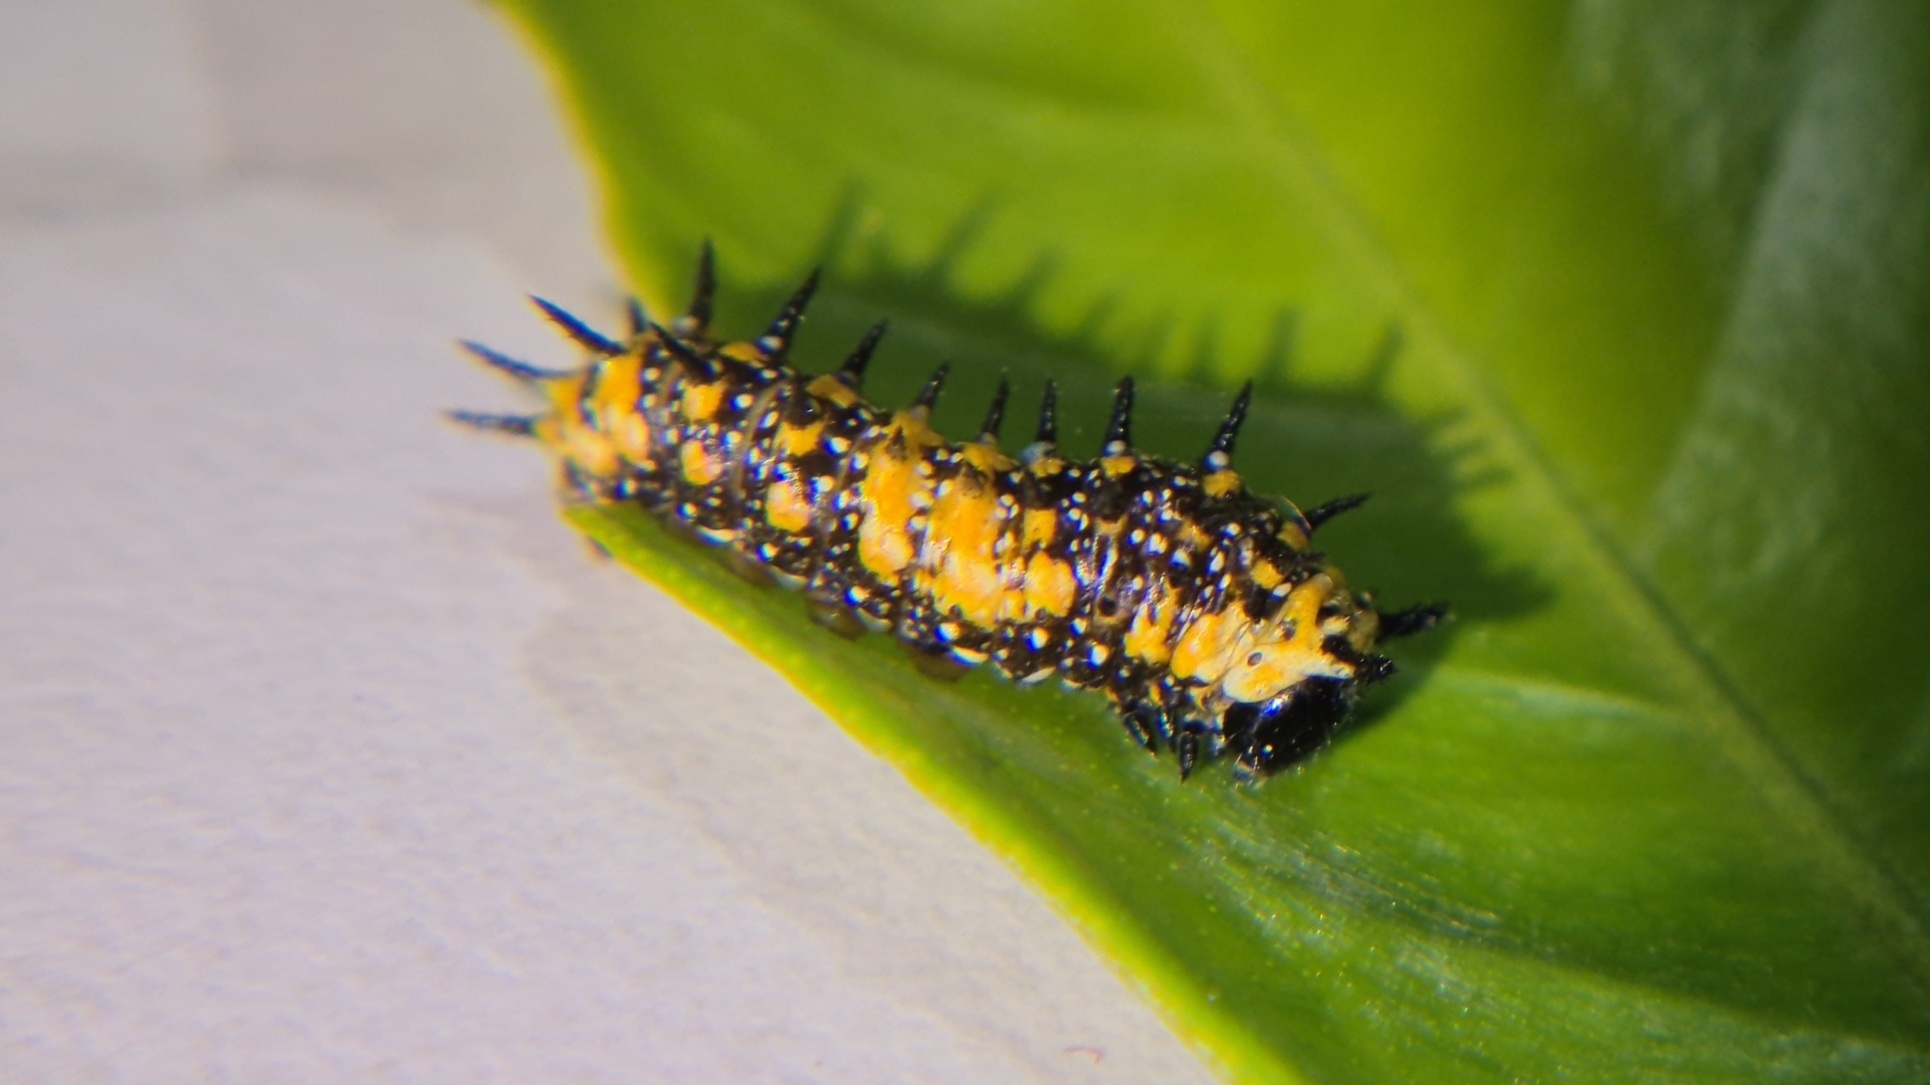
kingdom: Animalia
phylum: Arthropoda
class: Insecta
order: Lepidoptera
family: Papilionidae
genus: Papilio
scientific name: Papilio anactus
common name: Dingy swallowtail
